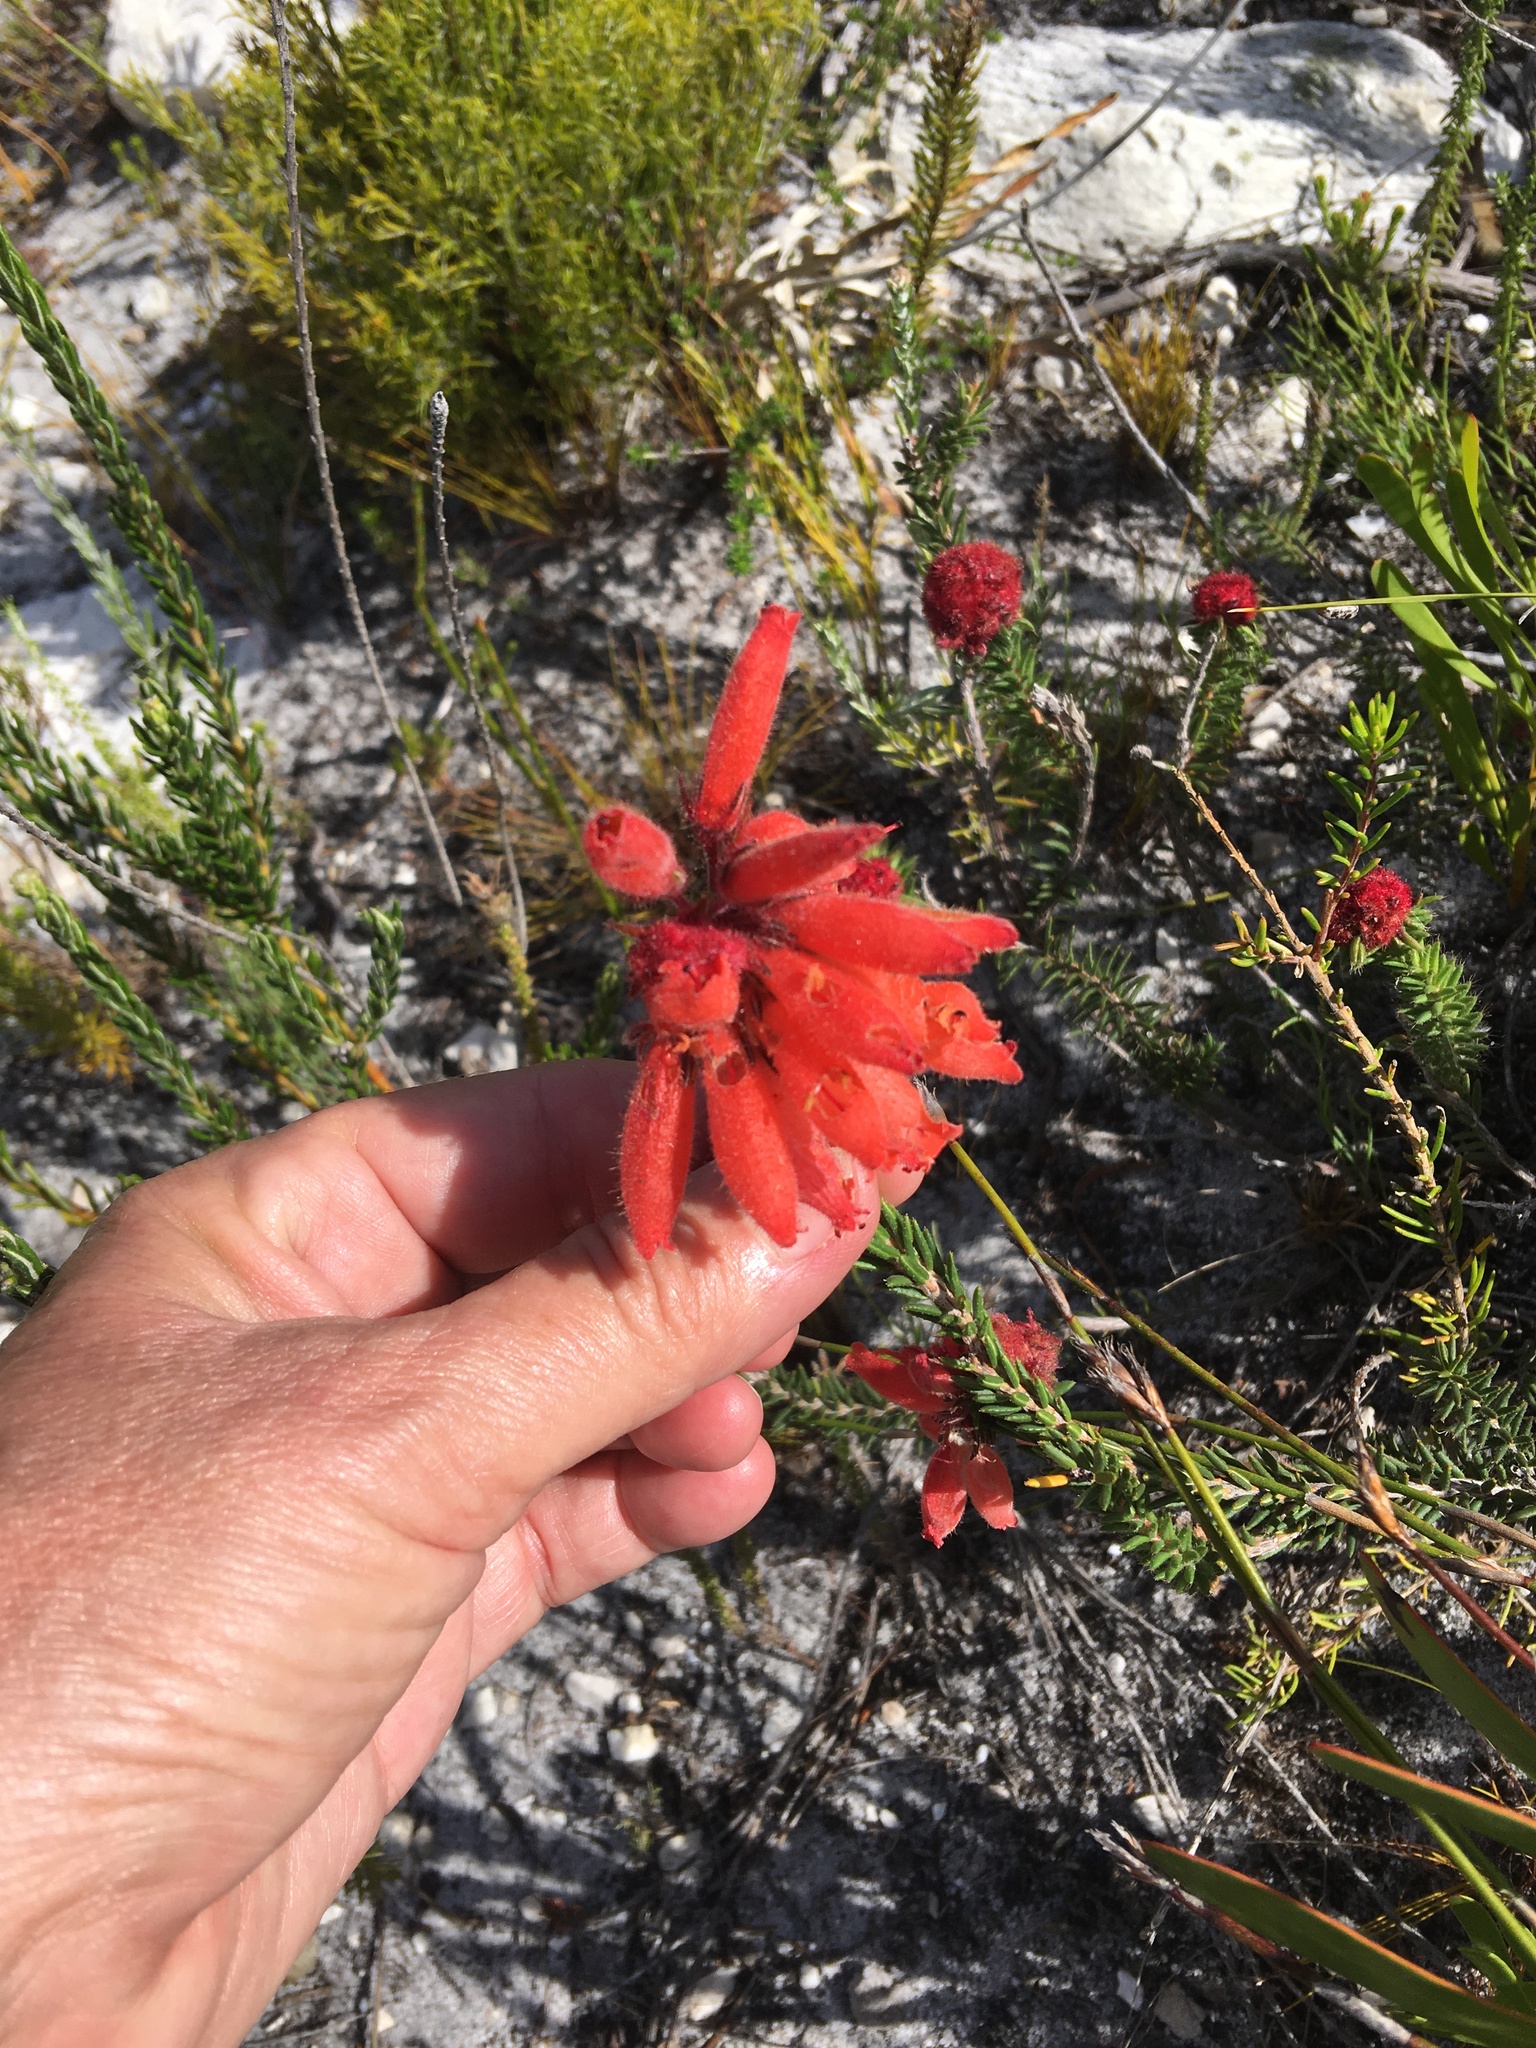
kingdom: Plantae
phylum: Tracheophyta
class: Magnoliopsida
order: Ericales
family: Ericaceae
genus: Erica
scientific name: Erica cerinthoides
